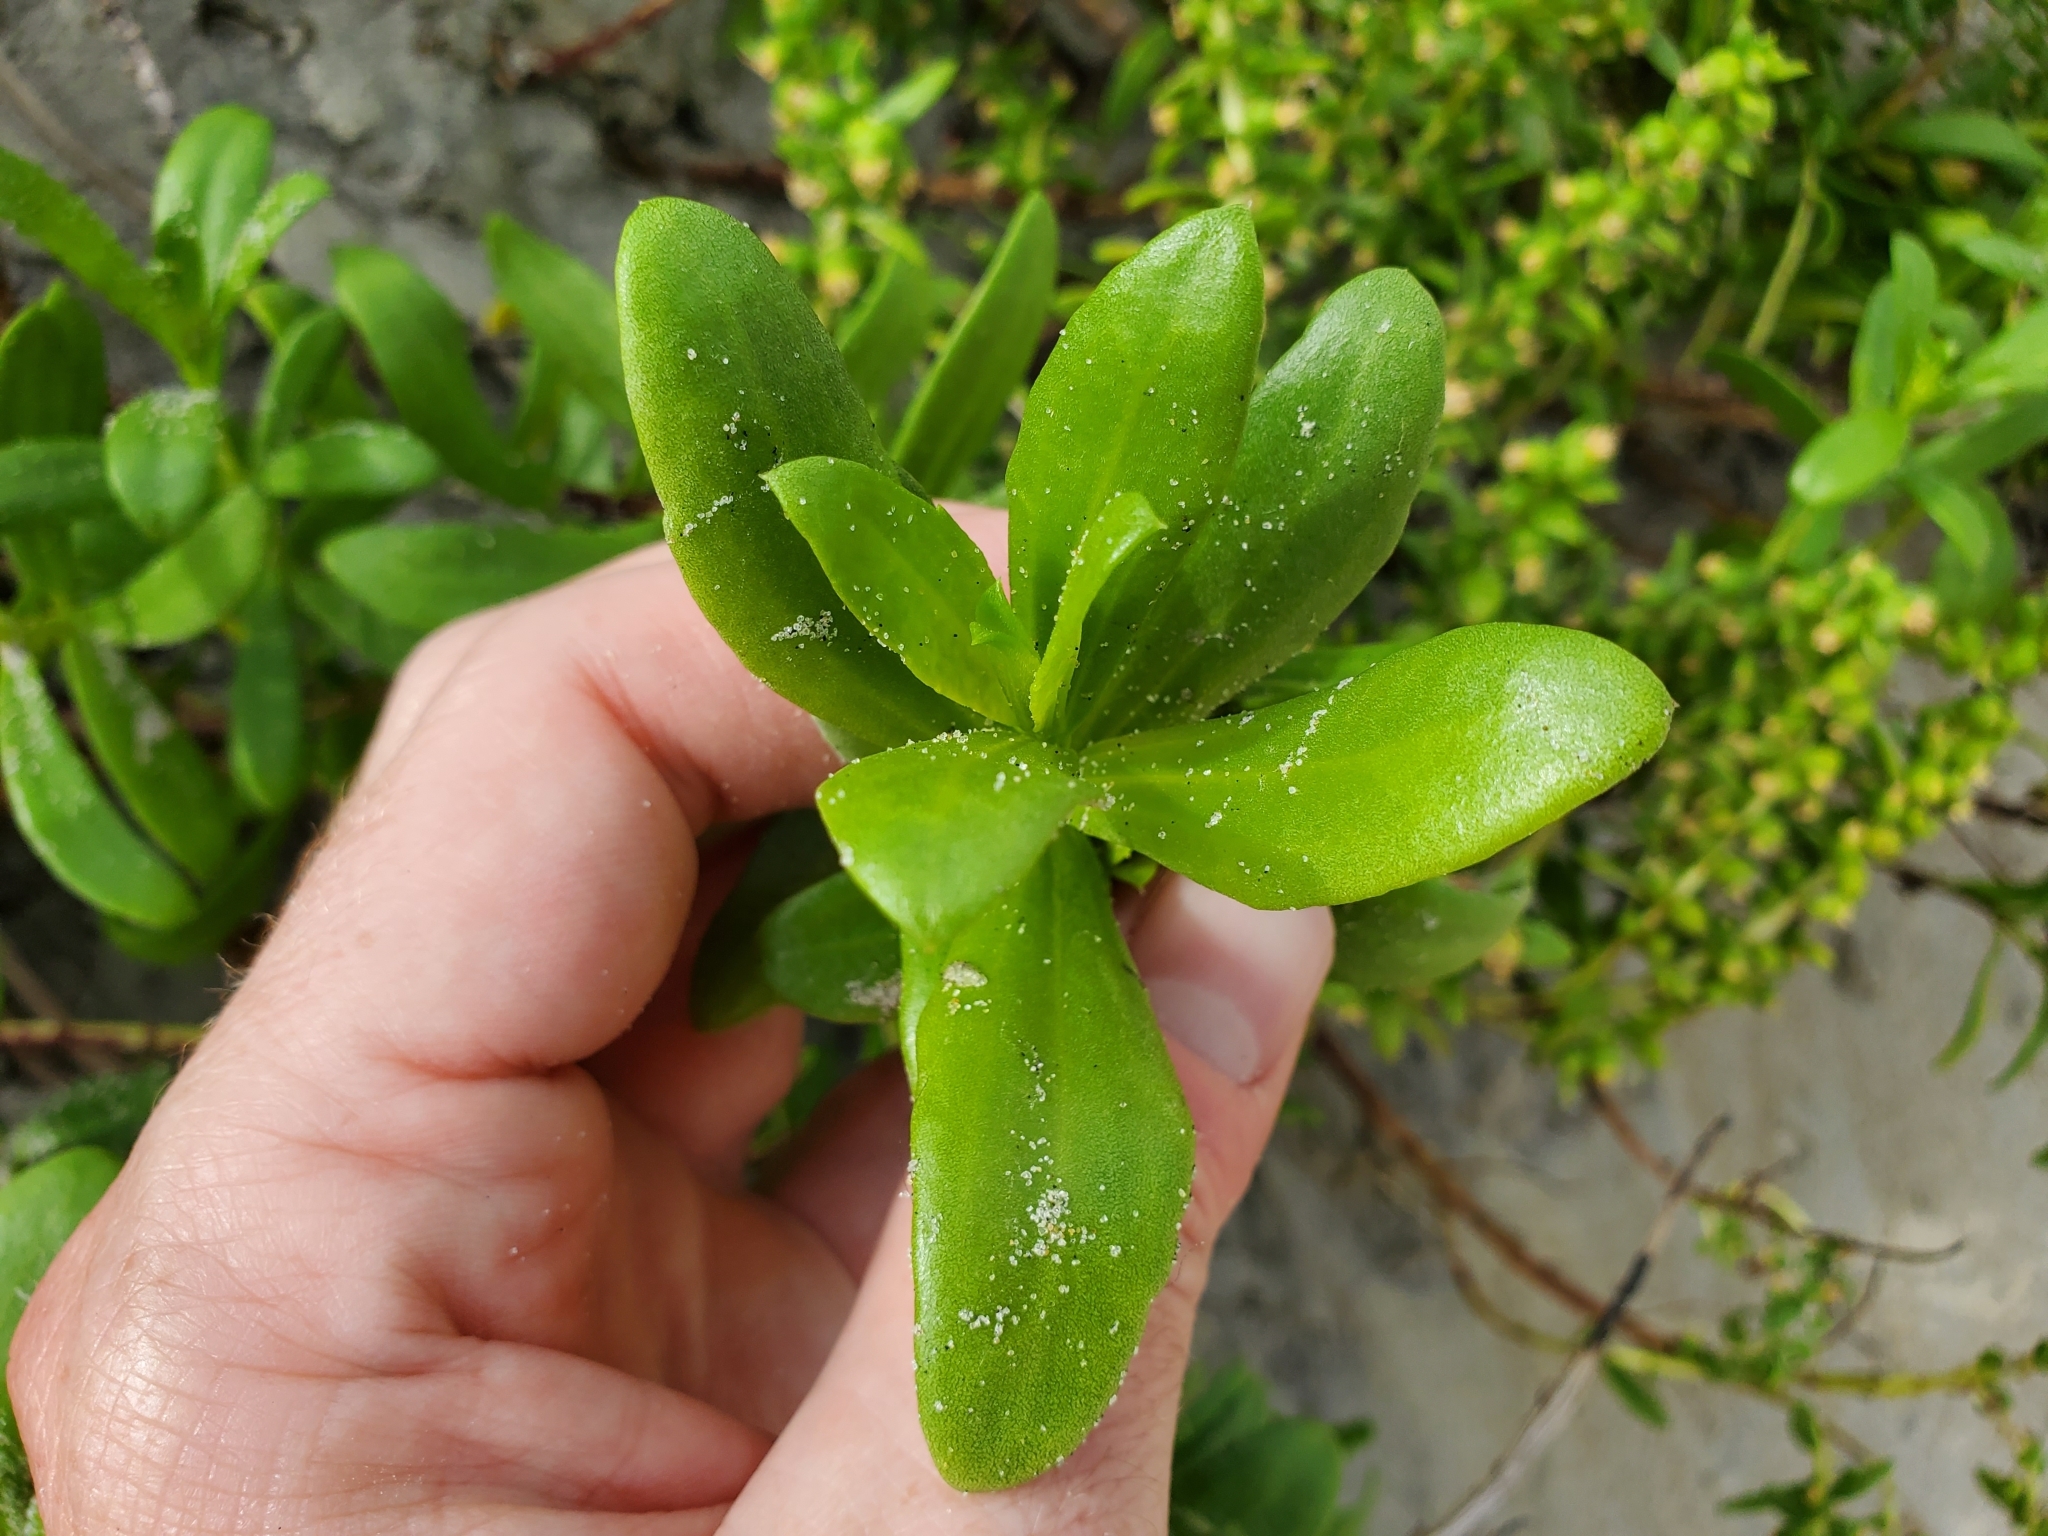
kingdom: Plantae
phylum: Tracheophyta
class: Magnoliopsida
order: Asterales
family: Asteraceae
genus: Iva
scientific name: Iva imbricata
